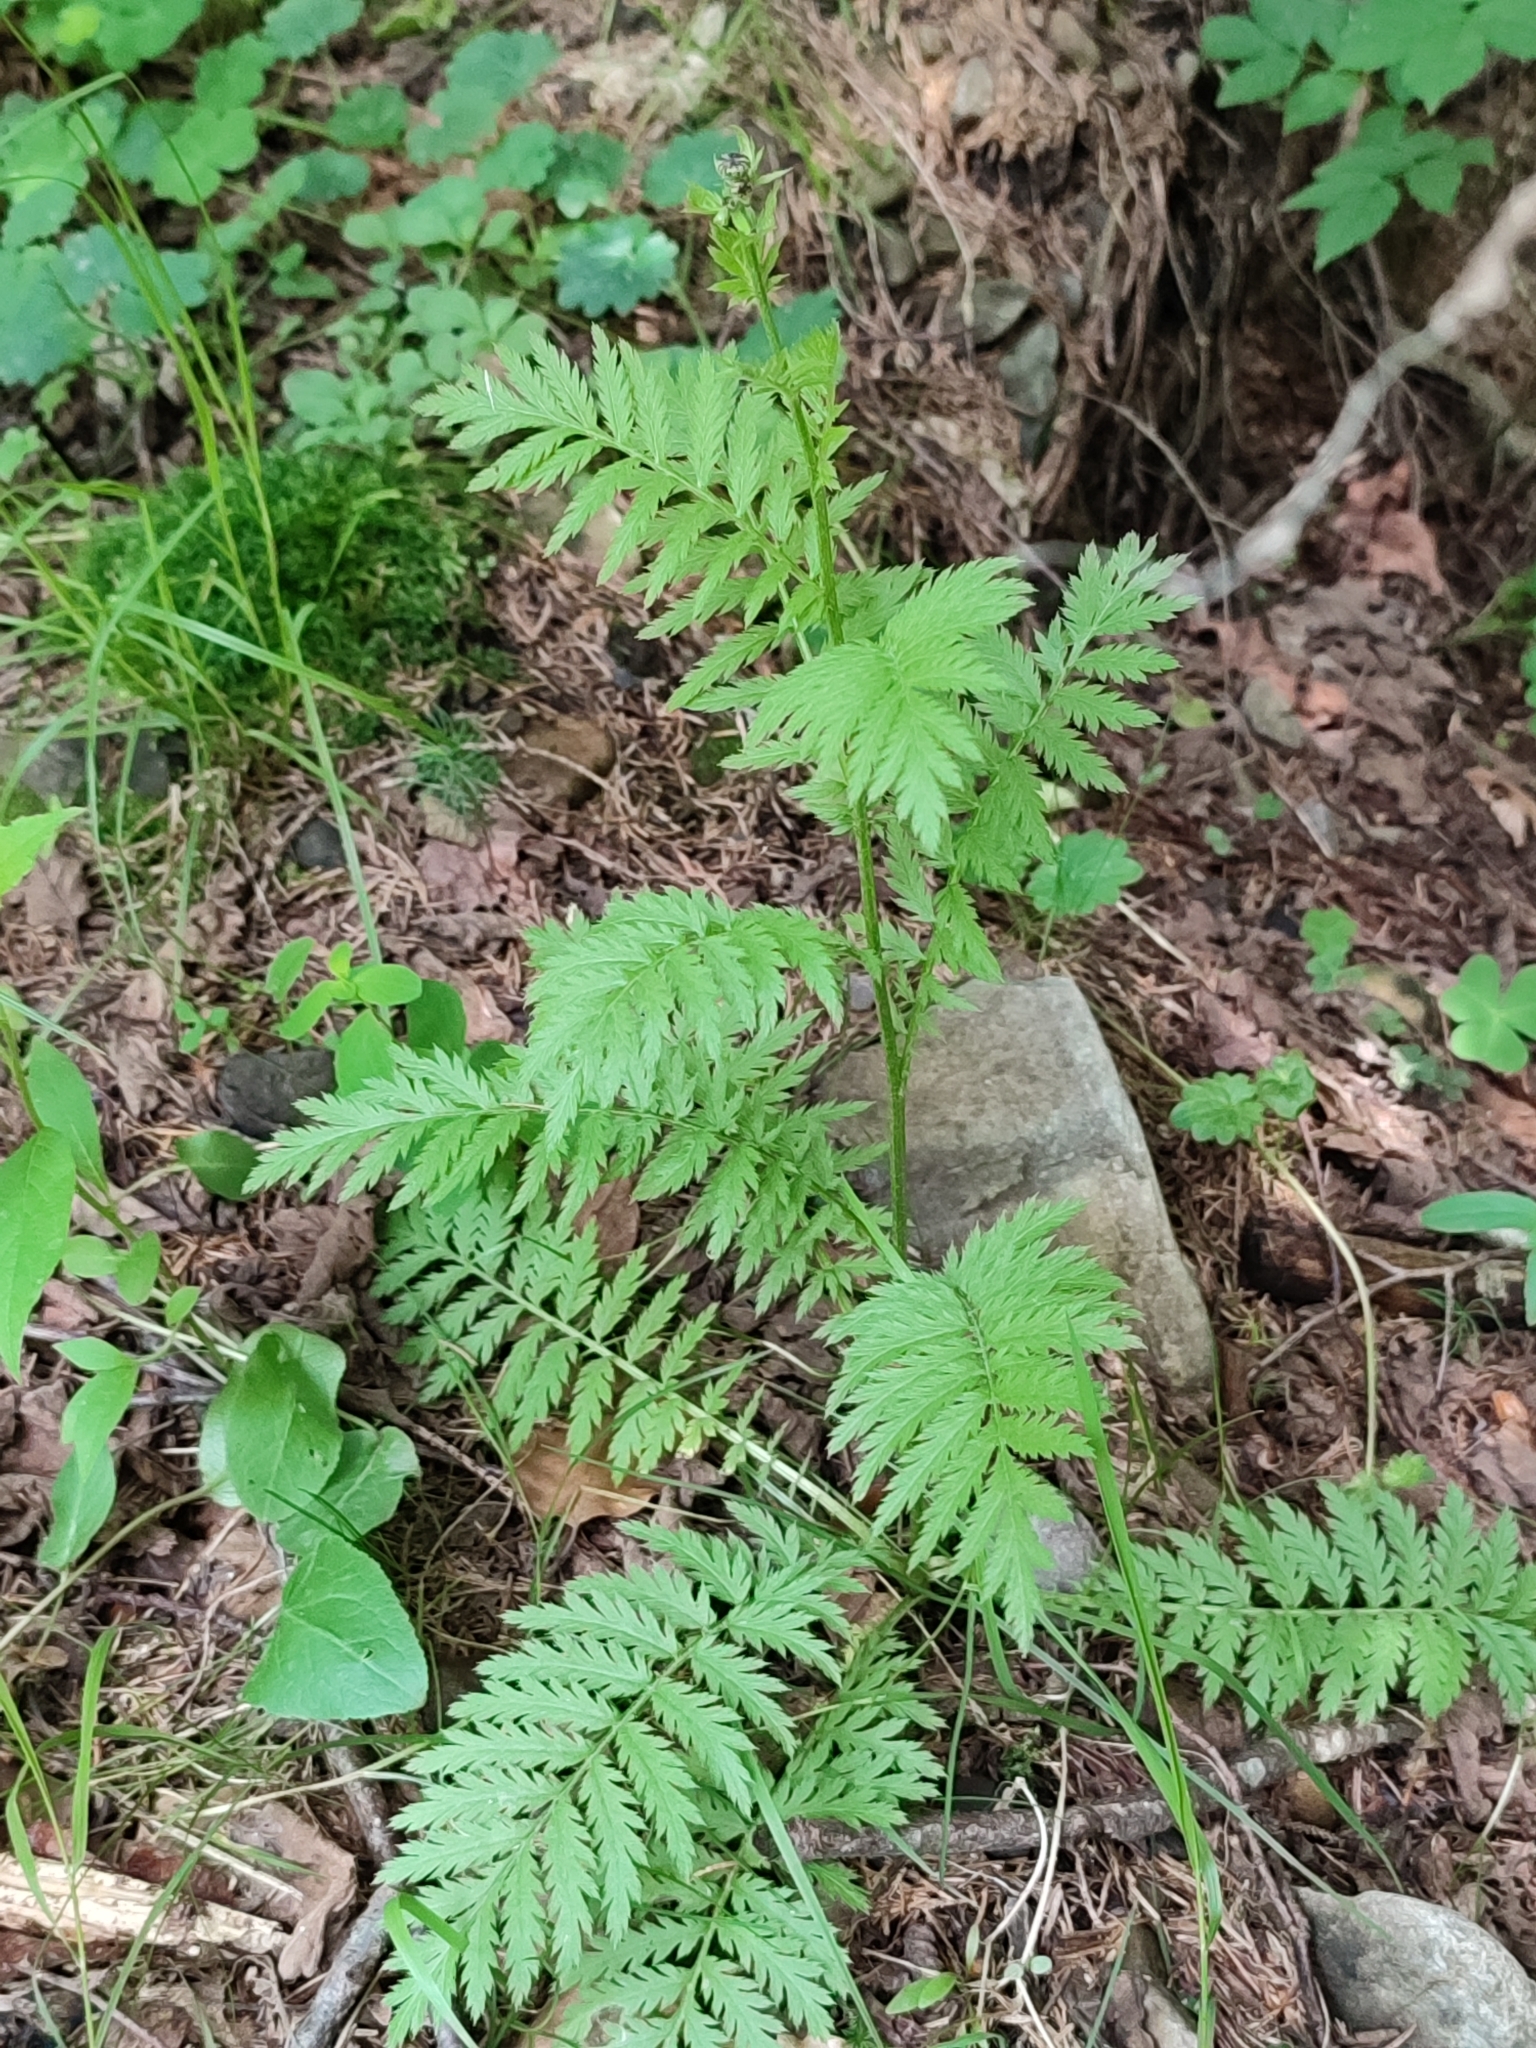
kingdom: Plantae
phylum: Tracheophyta
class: Magnoliopsida
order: Asterales
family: Asteraceae
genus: Tanacetum
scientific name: Tanacetum corymbosum
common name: Scentless feverfew
